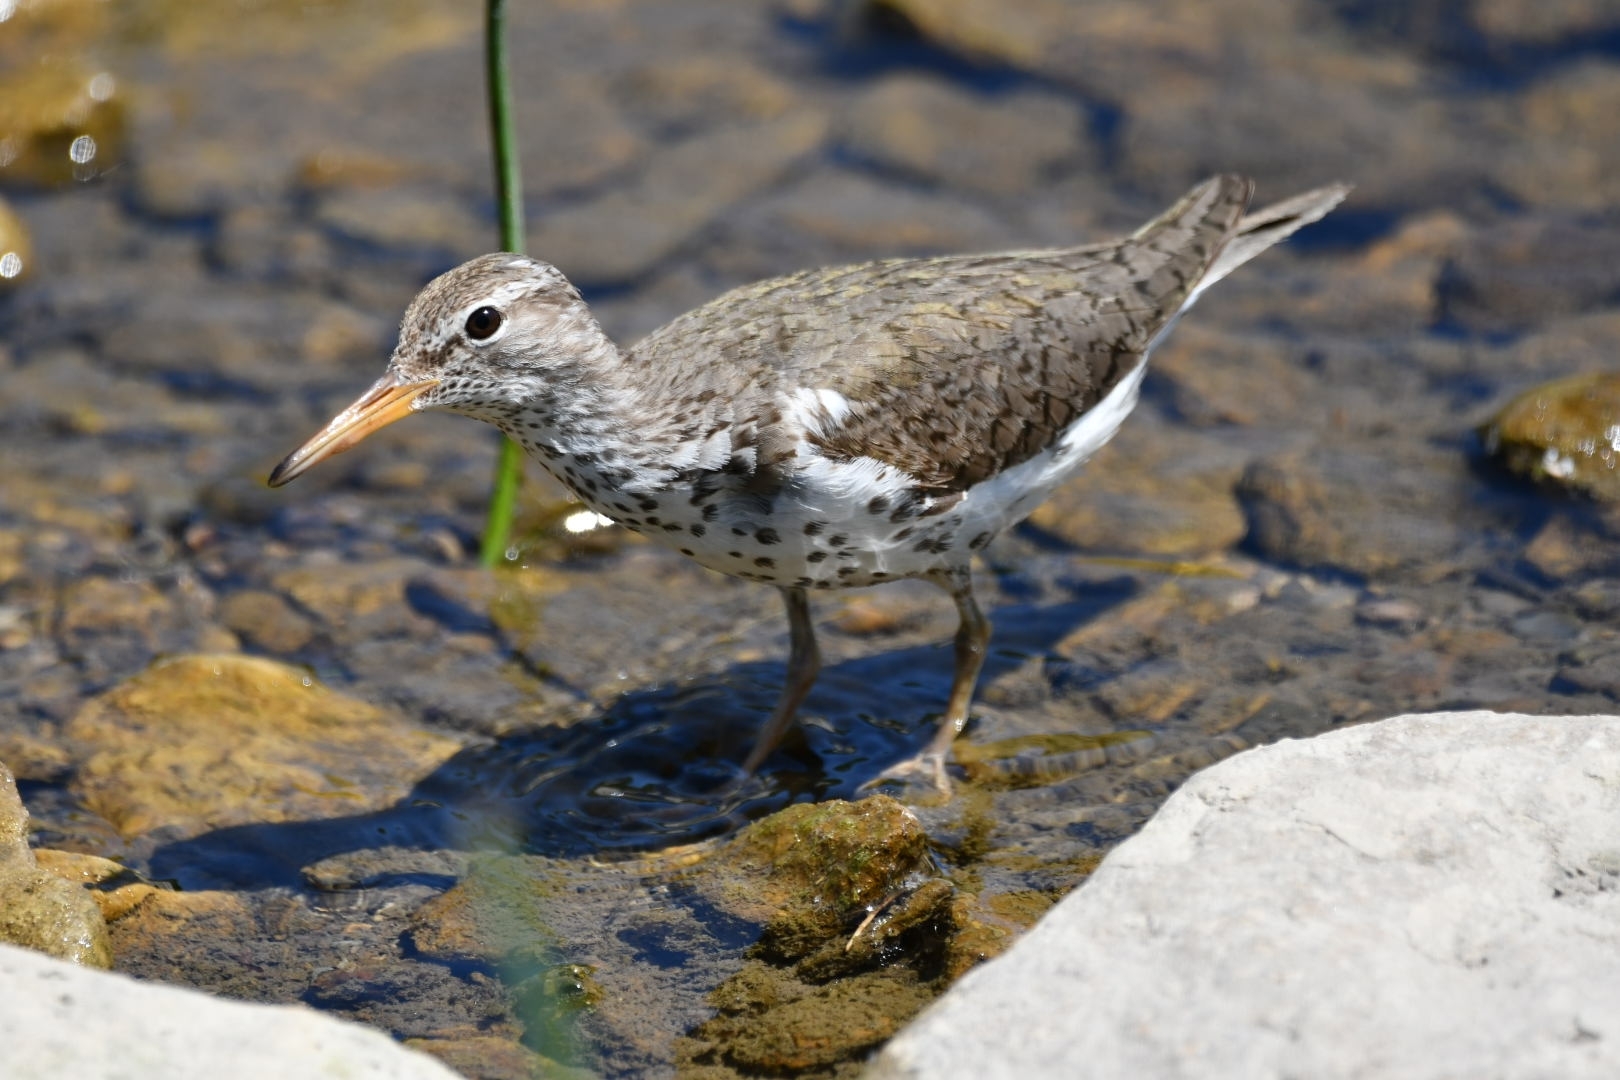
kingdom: Animalia
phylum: Chordata
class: Aves
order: Charadriiformes
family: Scolopacidae
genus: Actitis
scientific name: Actitis macularius
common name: Spotted sandpiper
